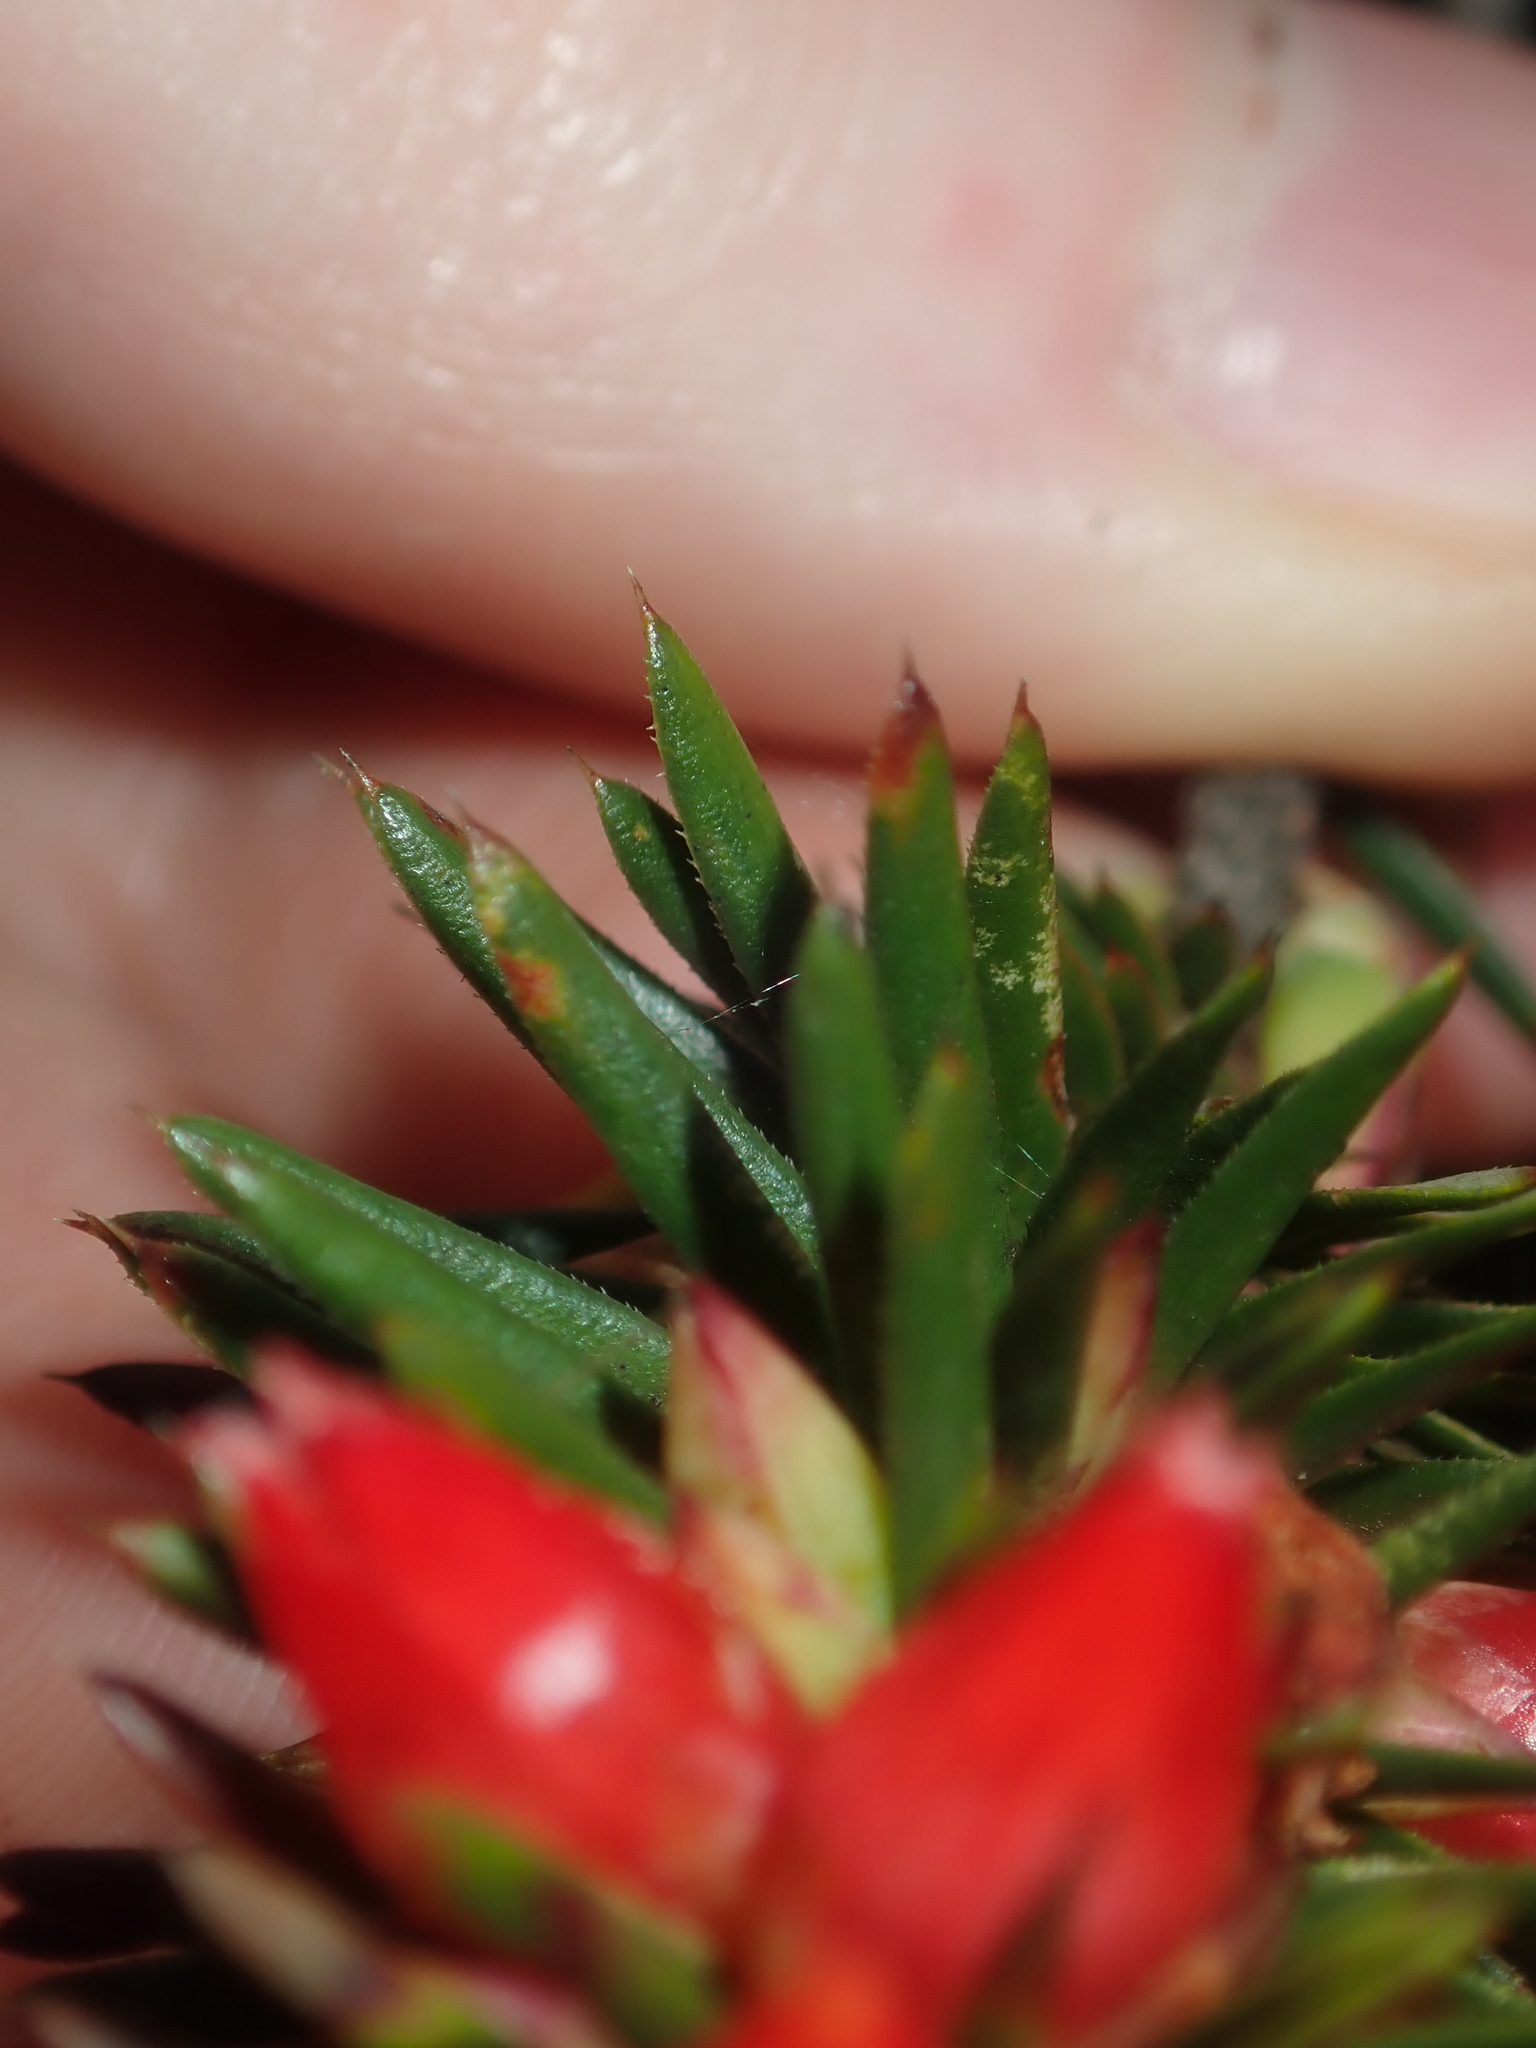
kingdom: Plantae
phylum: Tracheophyta
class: Magnoliopsida
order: Ericales
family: Ericaceae
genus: Styphelia
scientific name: Styphelia tortifolia
